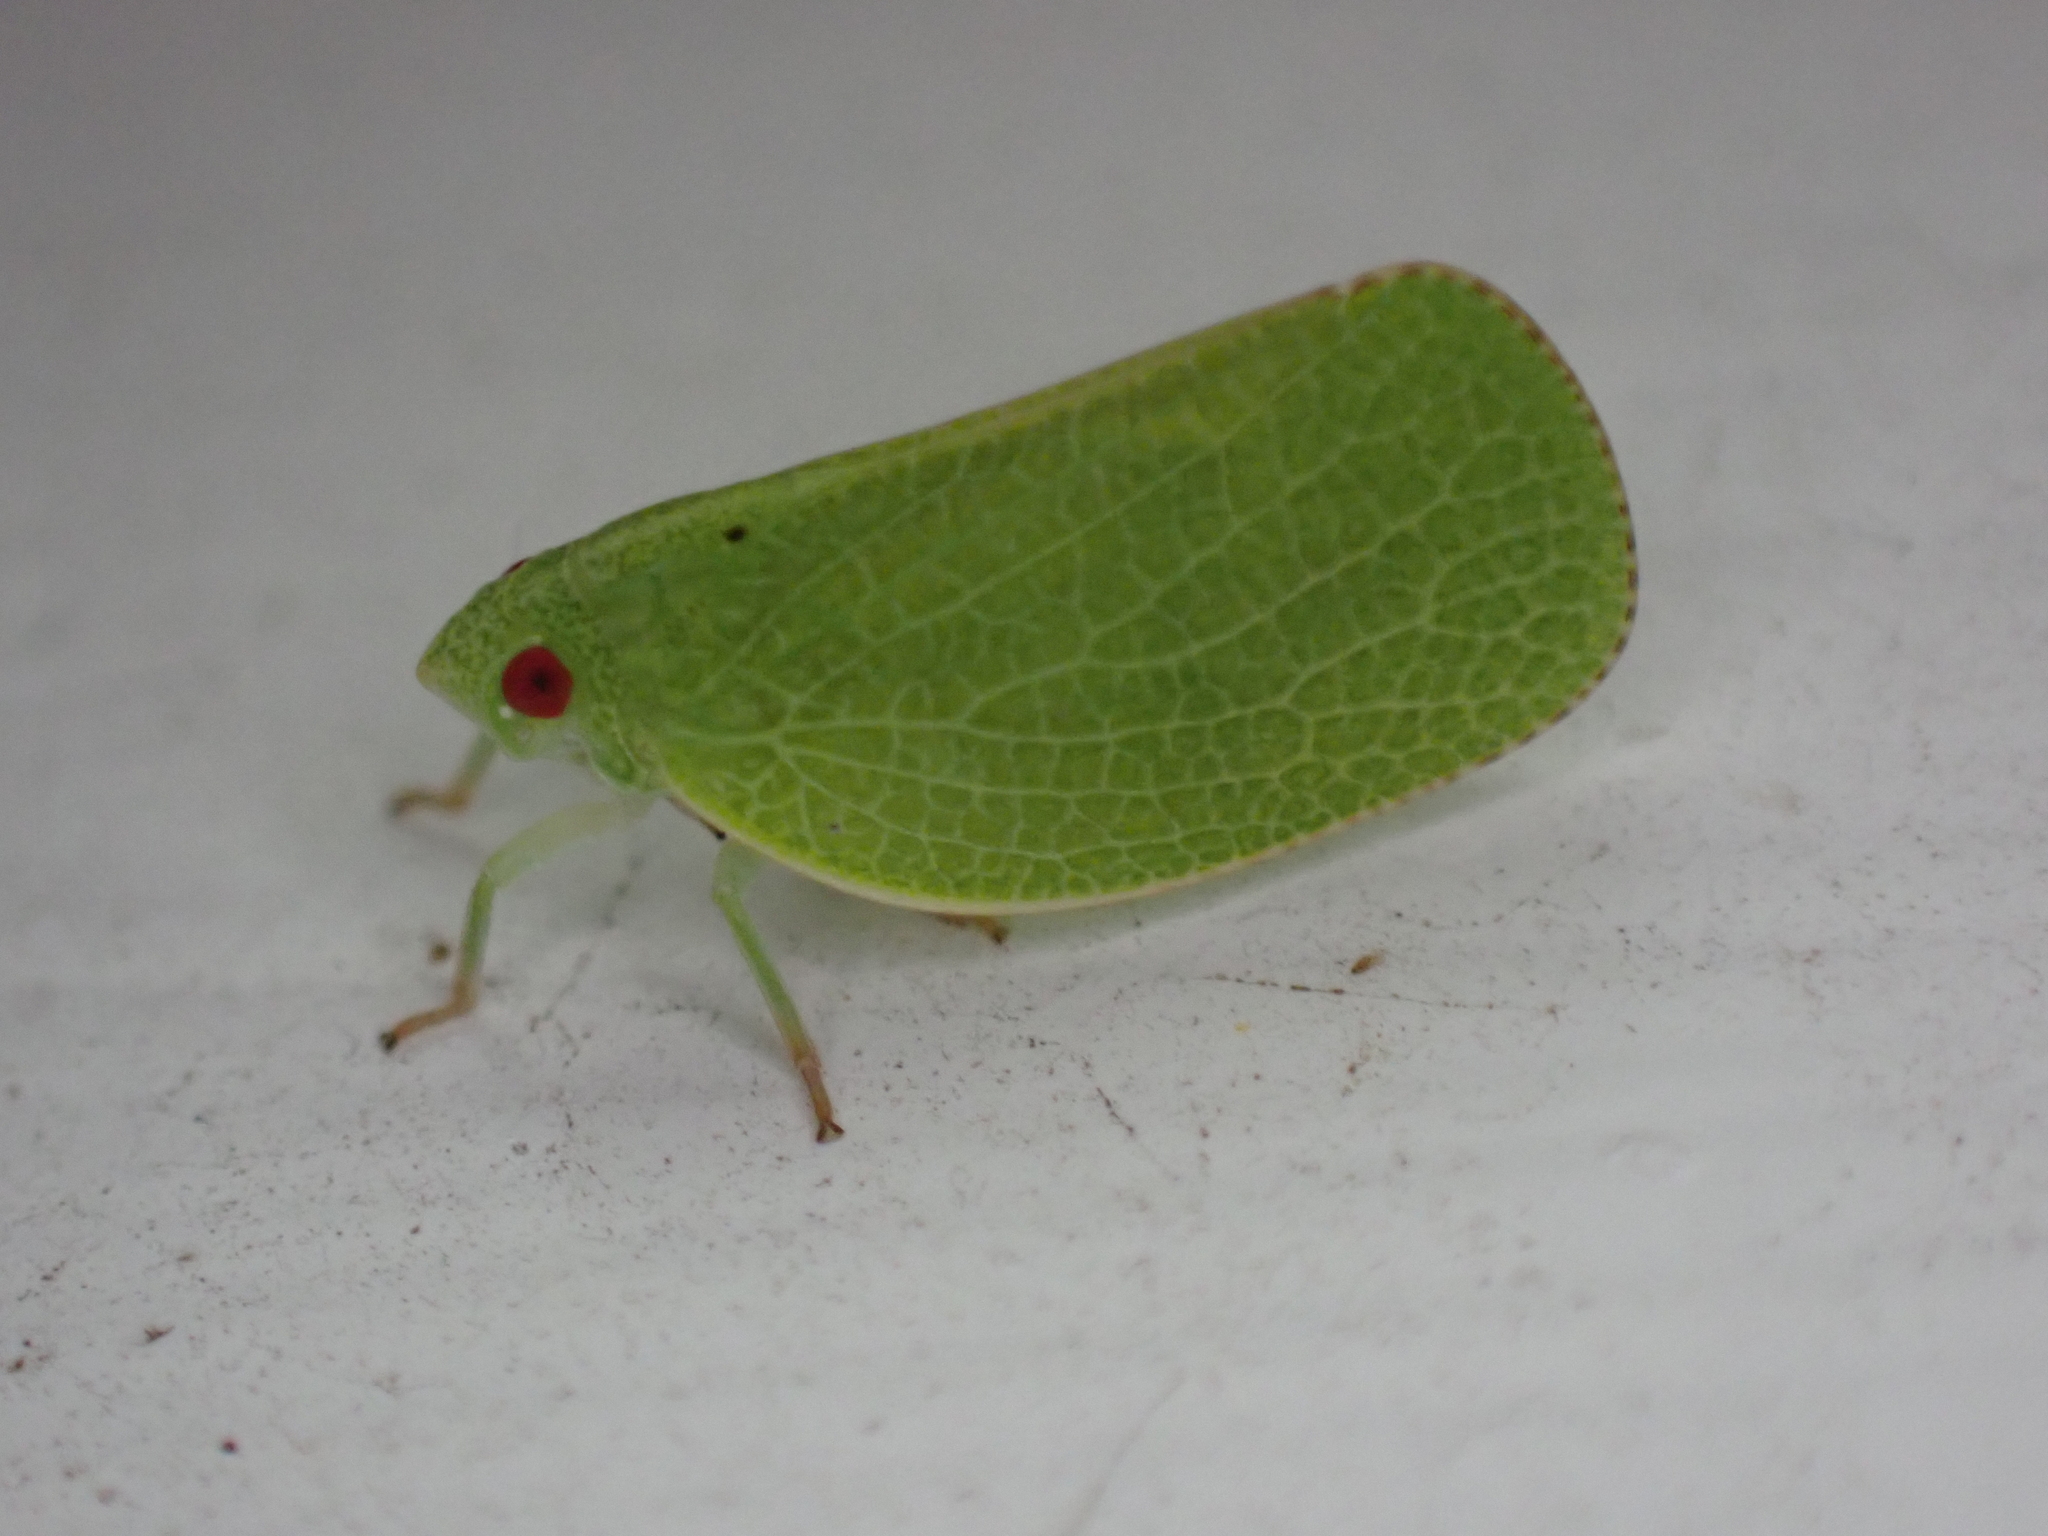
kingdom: Animalia
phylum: Arthropoda
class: Insecta
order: Hemiptera
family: Acanaloniidae
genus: Acanalonia
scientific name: Acanalonia conica
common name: Green cone-headed planthopper
